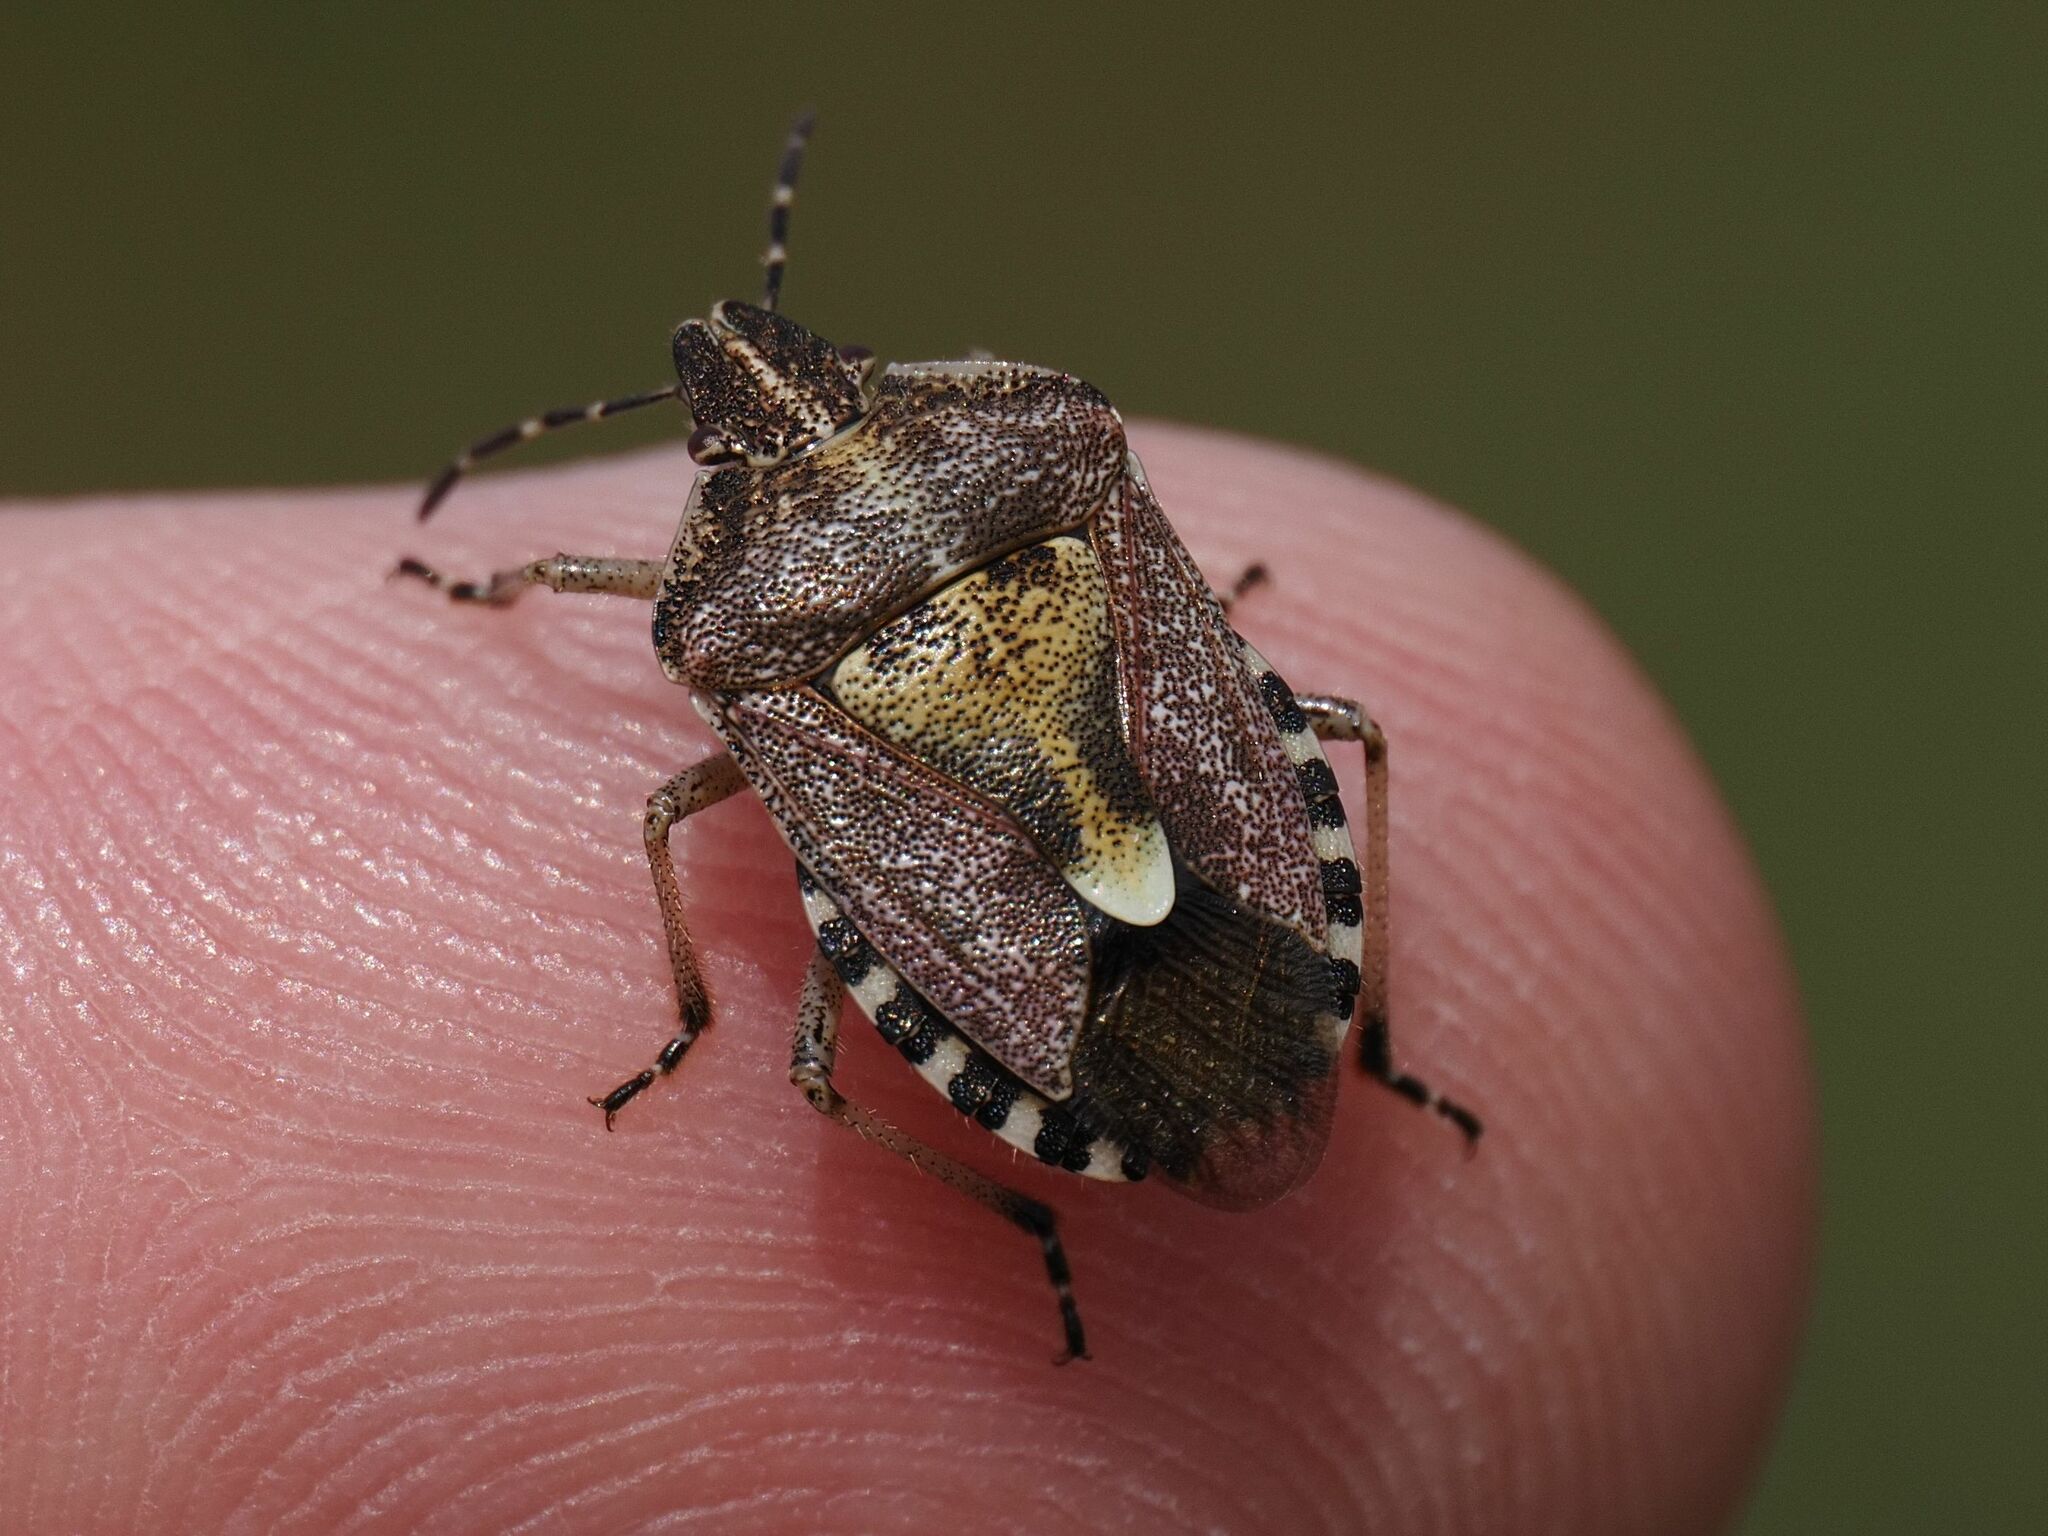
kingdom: Animalia
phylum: Arthropoda
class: Insecta
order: Hemiptera
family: Pentatomidae
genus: Dolycoris
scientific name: Dolycoris baccarum
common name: Sloe bug
